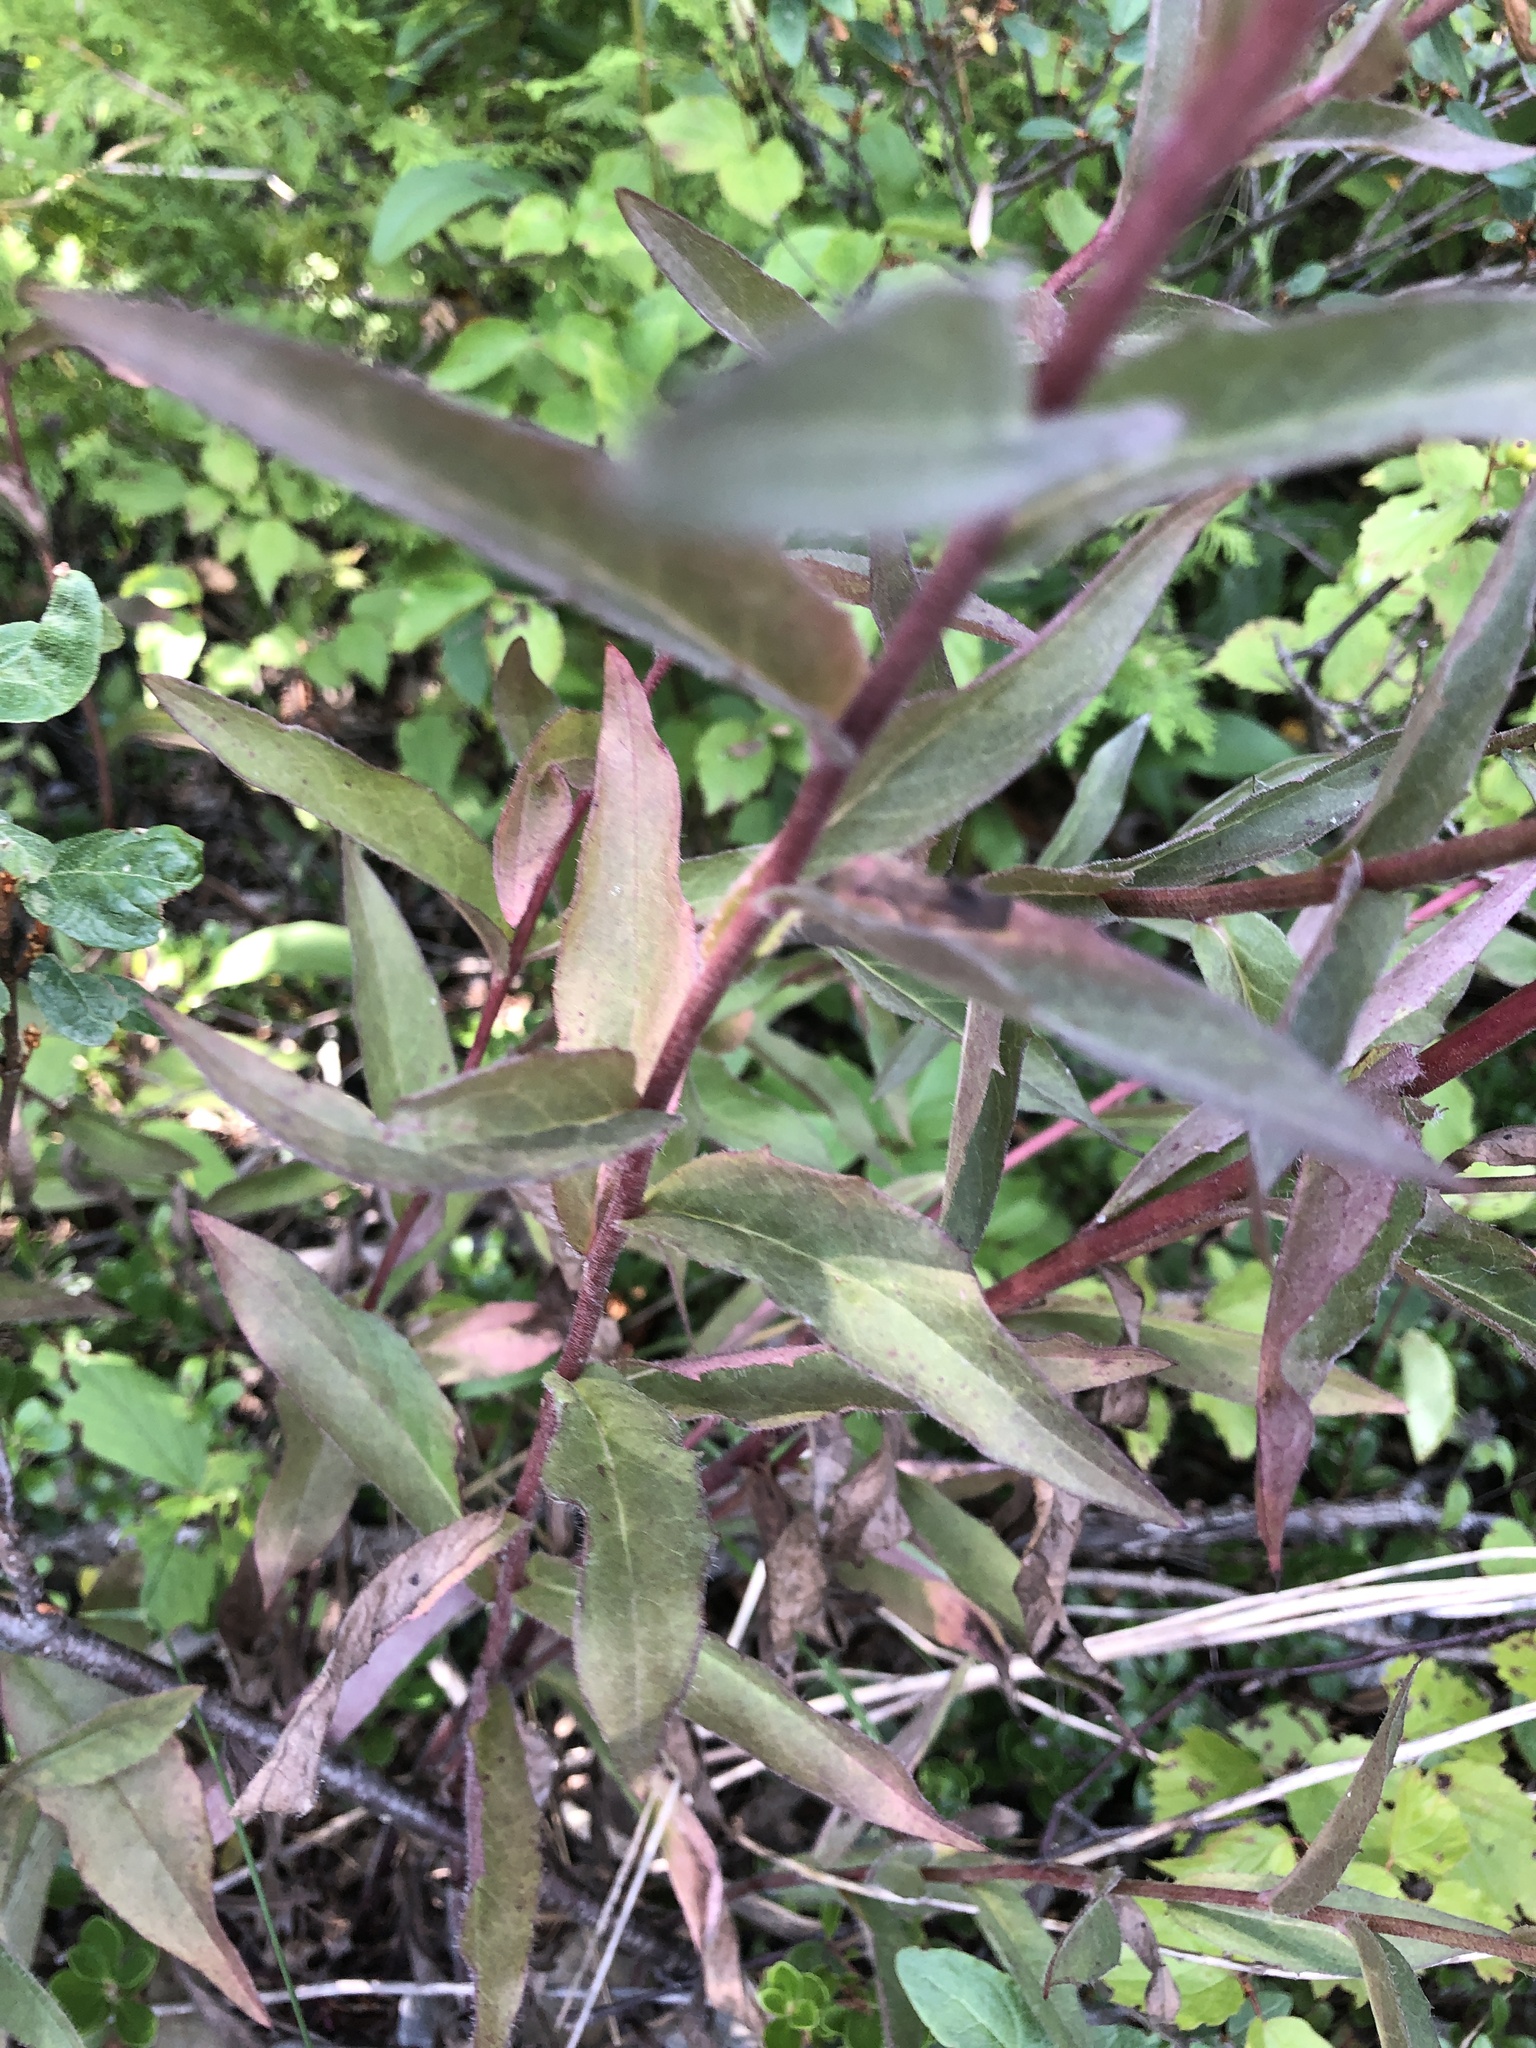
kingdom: Plantae
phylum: Tracheophyta
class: Magnoliopsida
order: Asterales
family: Asteraceae
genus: Hieracium
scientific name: Hieracium umbellatum
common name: Northern hawkweed
